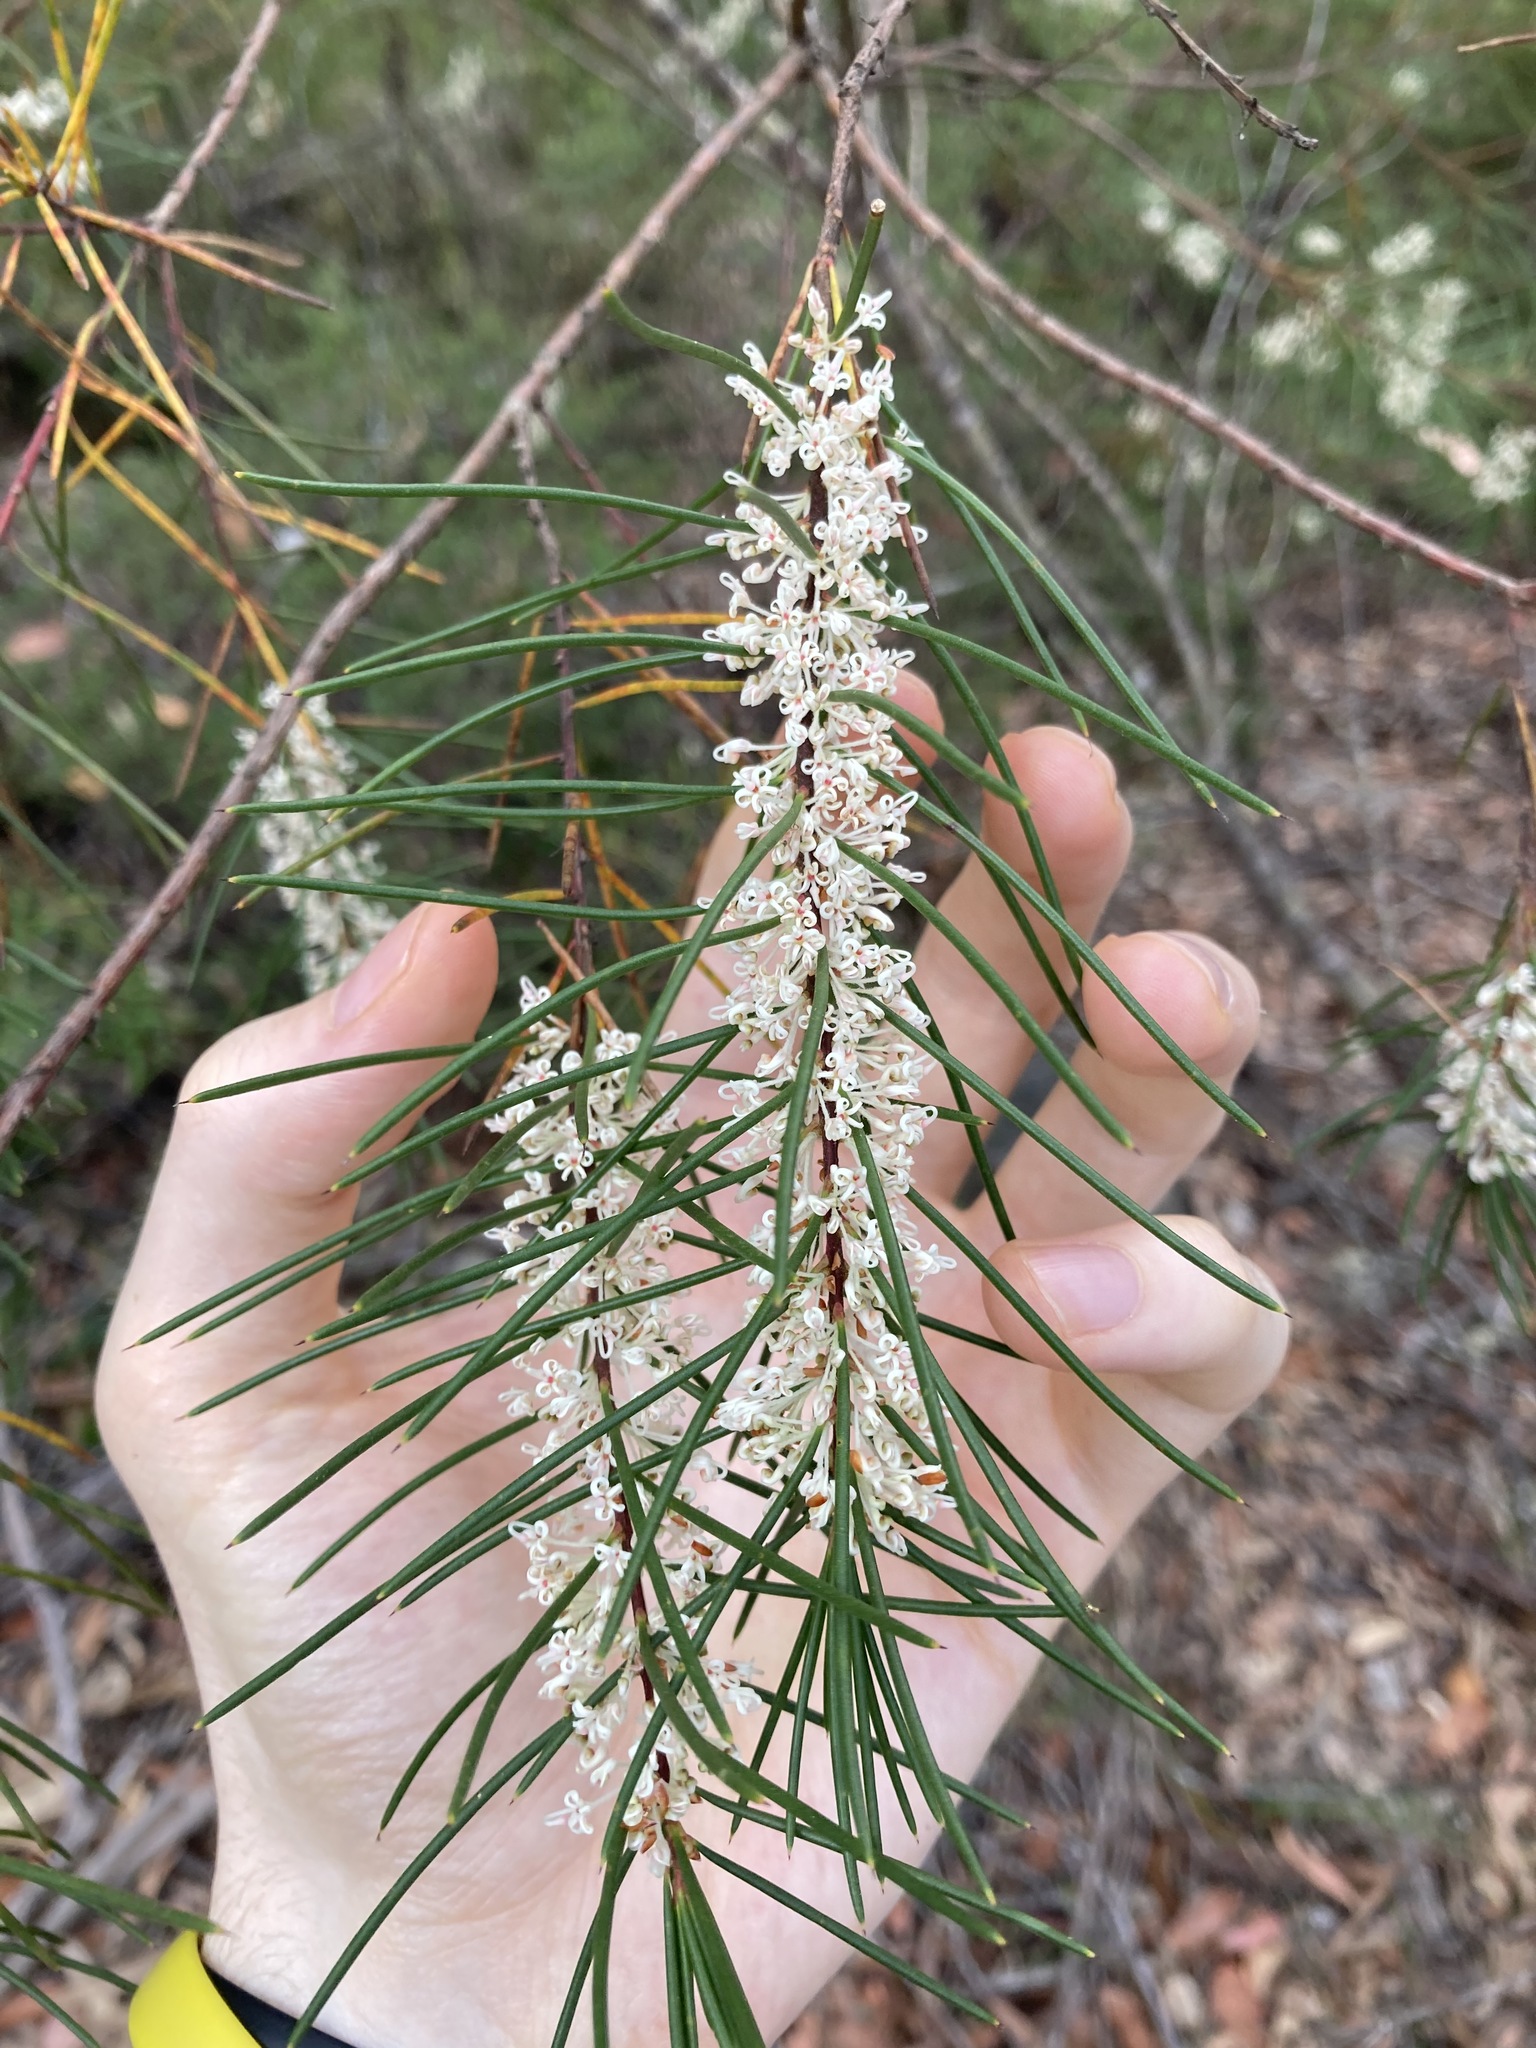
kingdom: Plantae
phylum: Tracheophyta
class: Magnoliopsida
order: Proteales
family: Proteaceae
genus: Hakea
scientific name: Hakea propinqua
